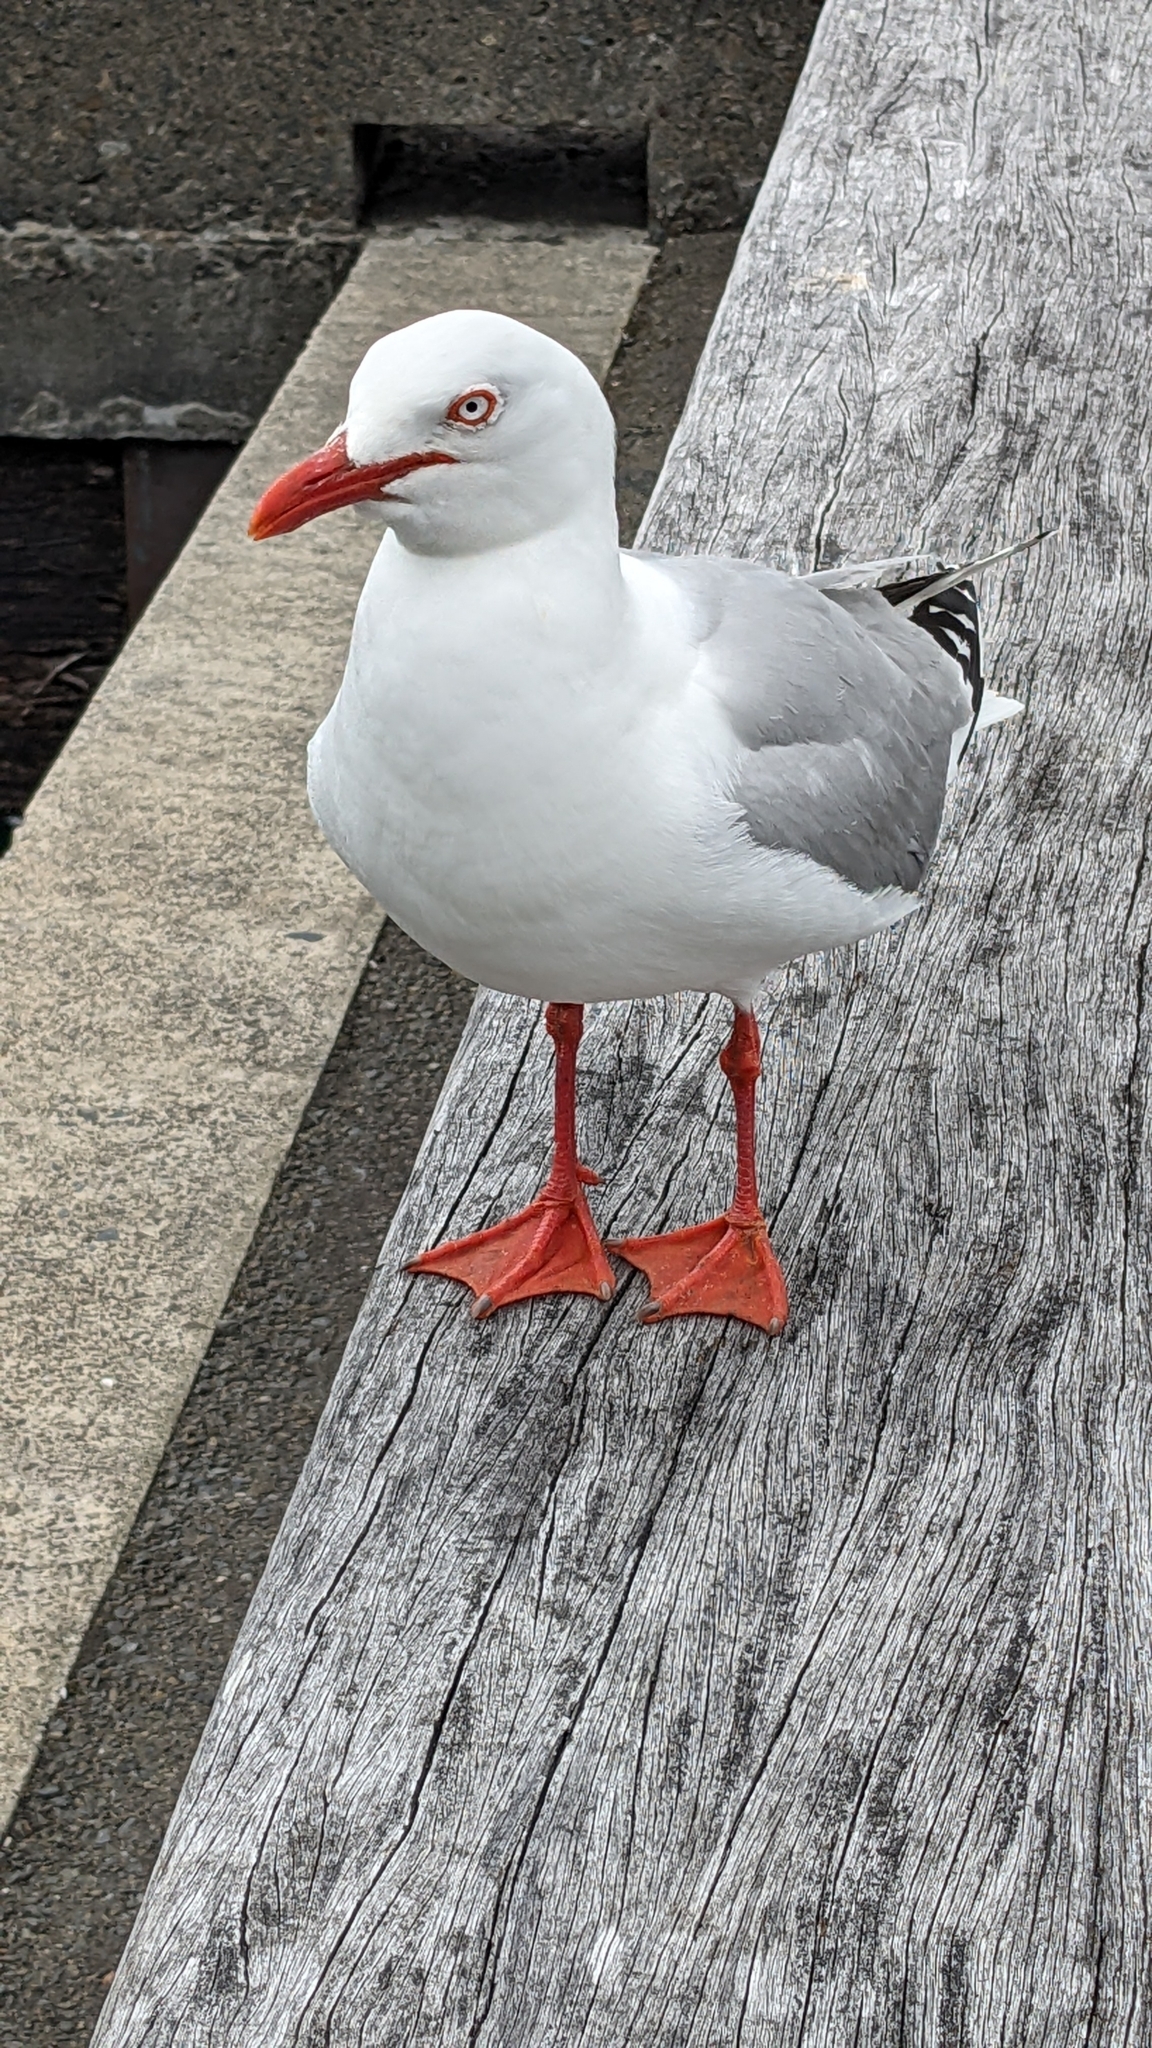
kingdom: Animalia
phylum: Chordata
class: Aves
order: Charadriiformes
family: Laridae
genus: Chroicocephalus
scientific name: Chroicocephalus novaehollandiae
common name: Silver gull
